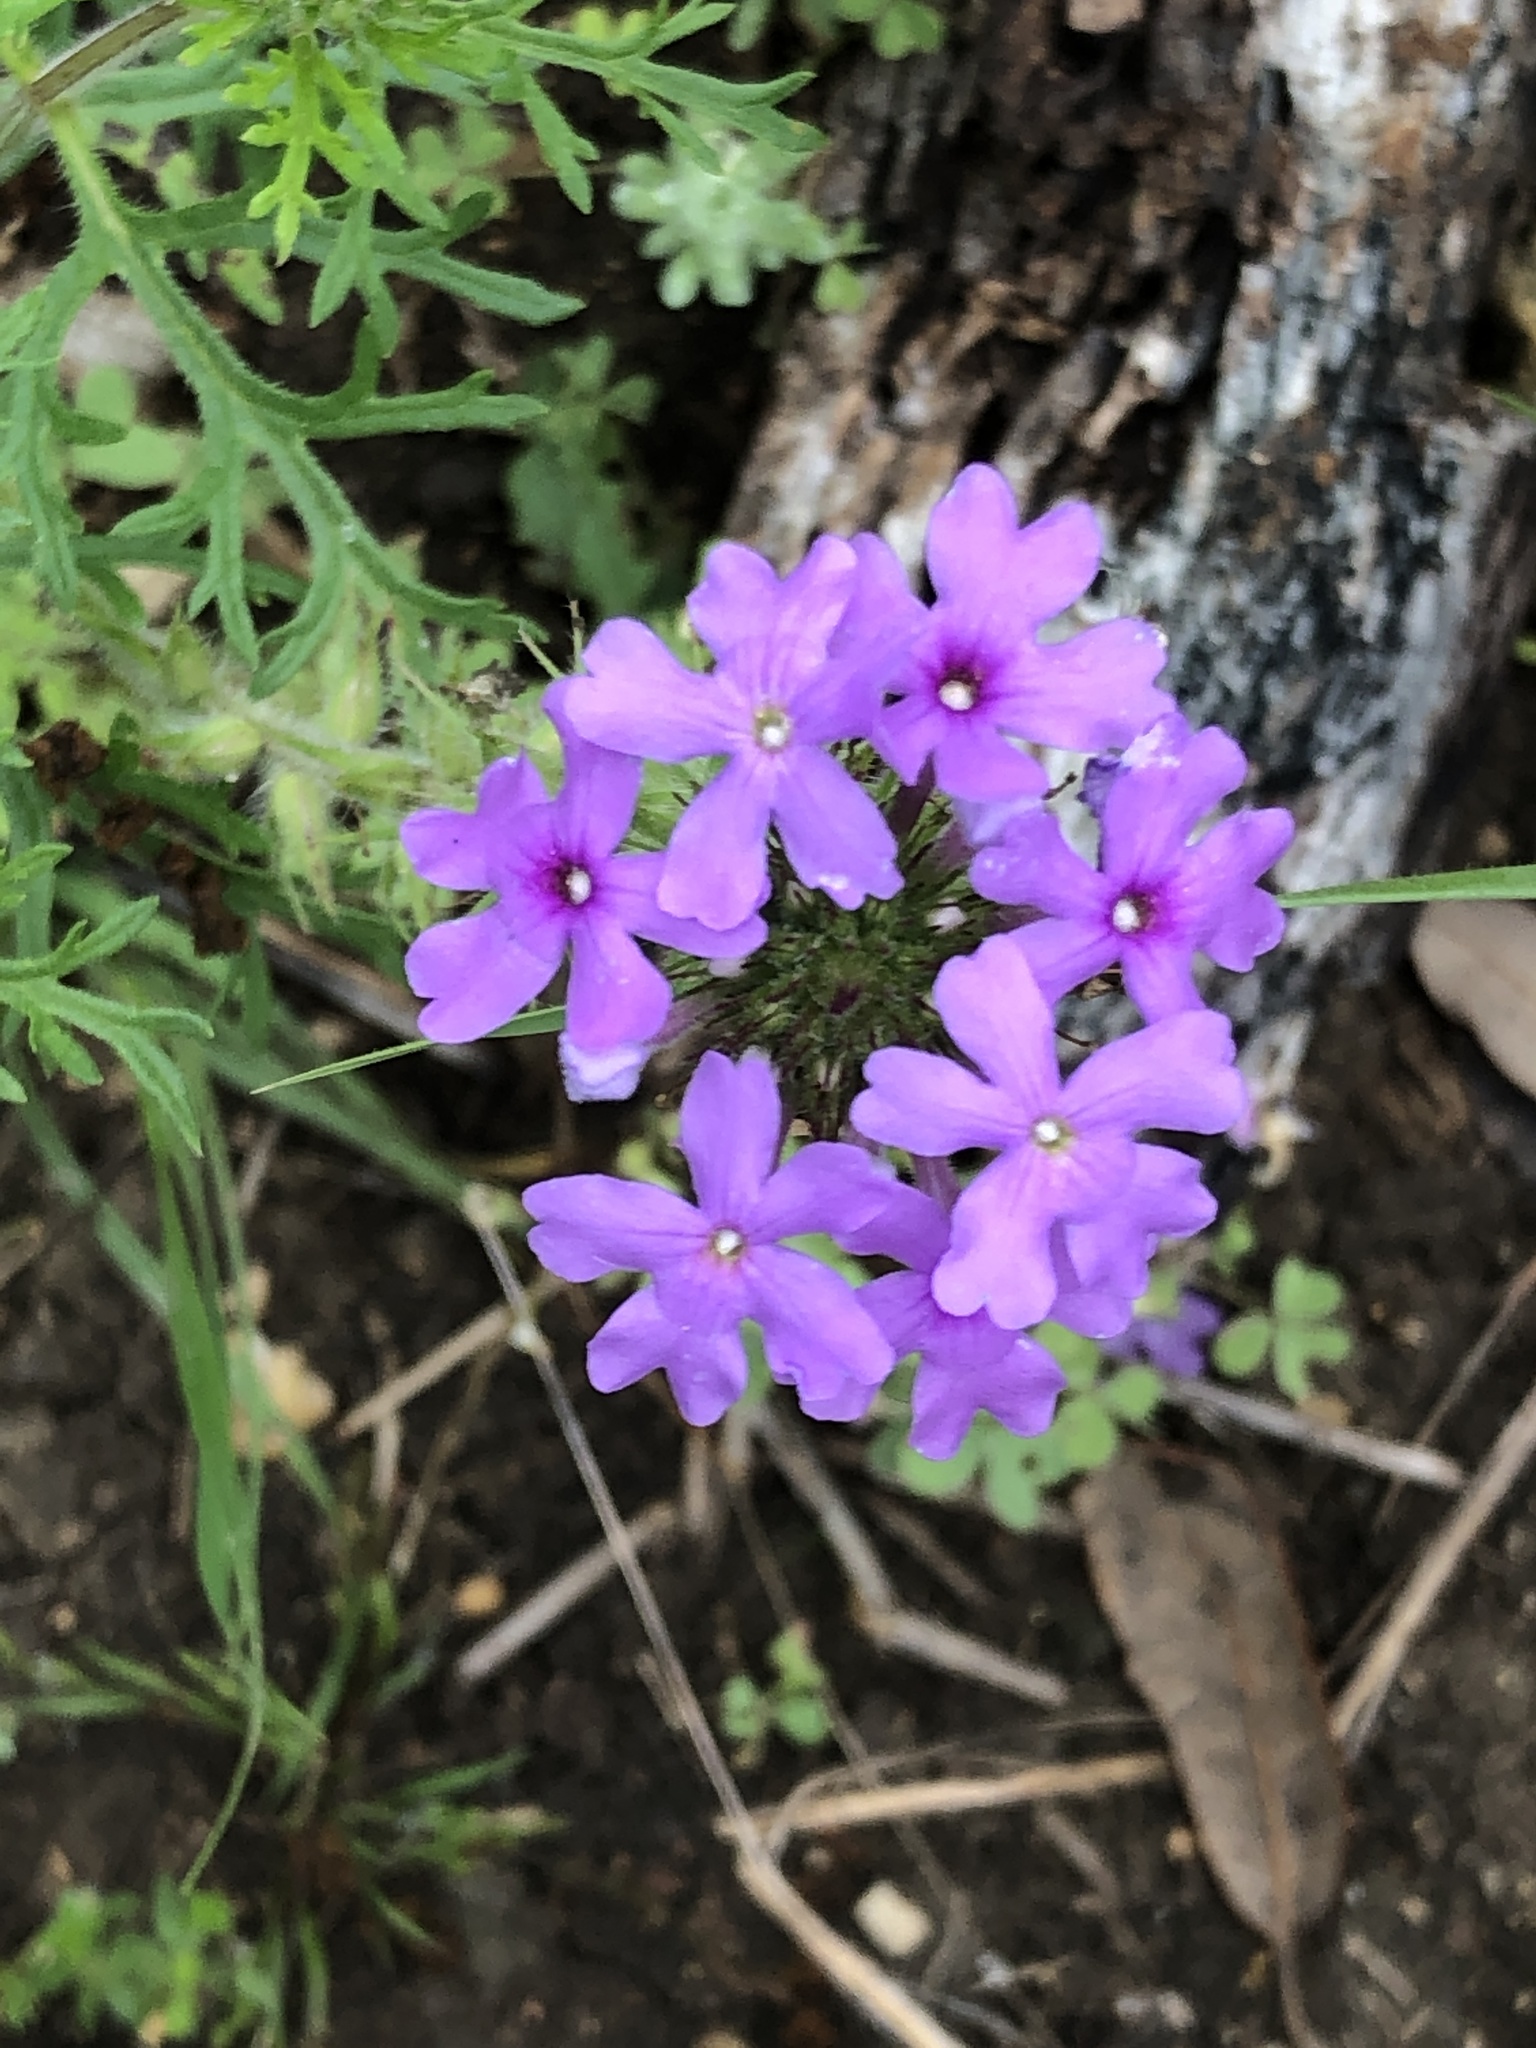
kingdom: Plantae
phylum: Tracheophyta
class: Magnoliopsida
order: Lamiales
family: Verbenaceae
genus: Verbena
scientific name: Verbena bipinnatifida
